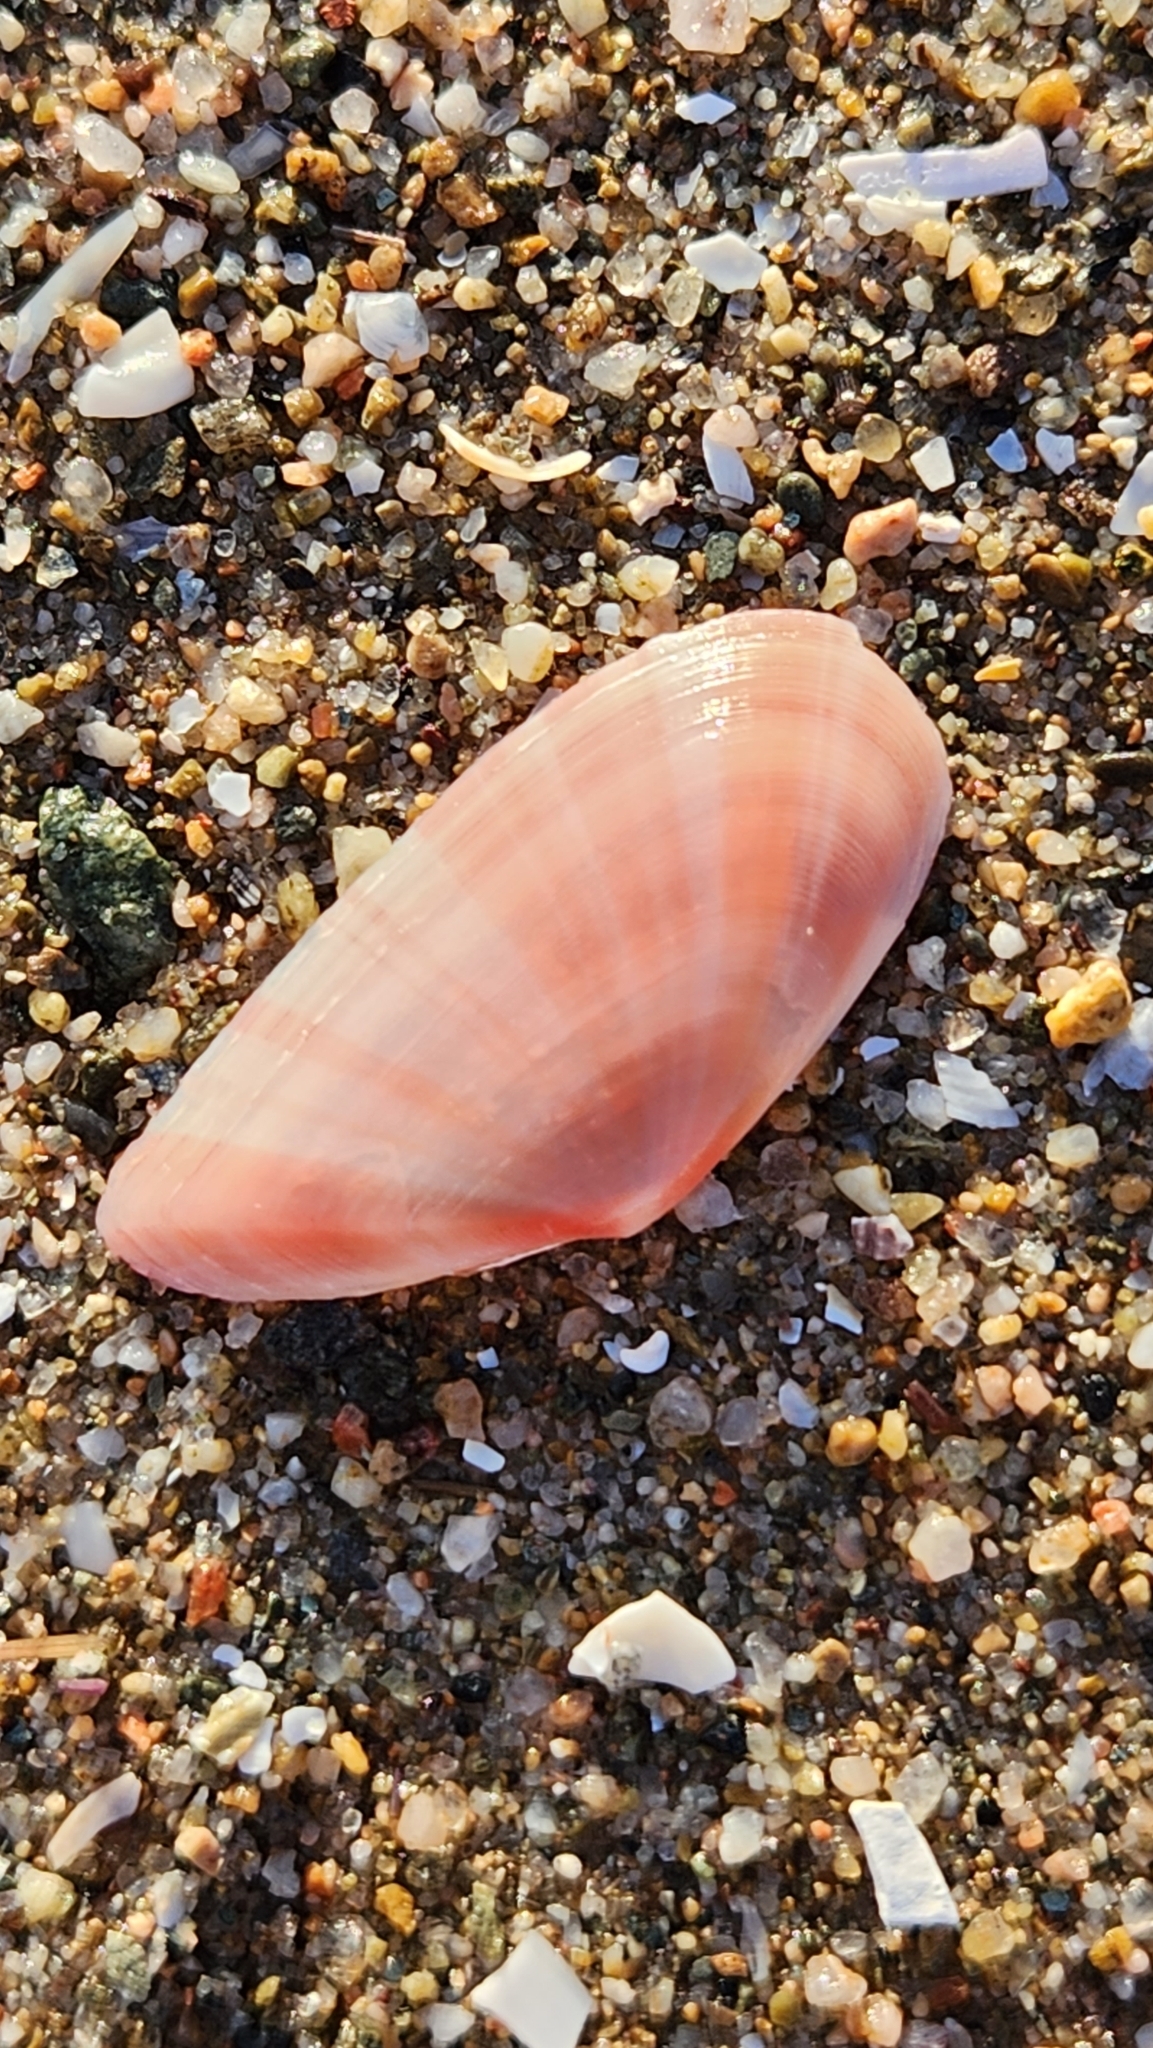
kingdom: Animalia
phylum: Mollusca
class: Bivalvia
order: Cardiida
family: Tellinidae
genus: Moerella
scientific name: Moerella pulchella
